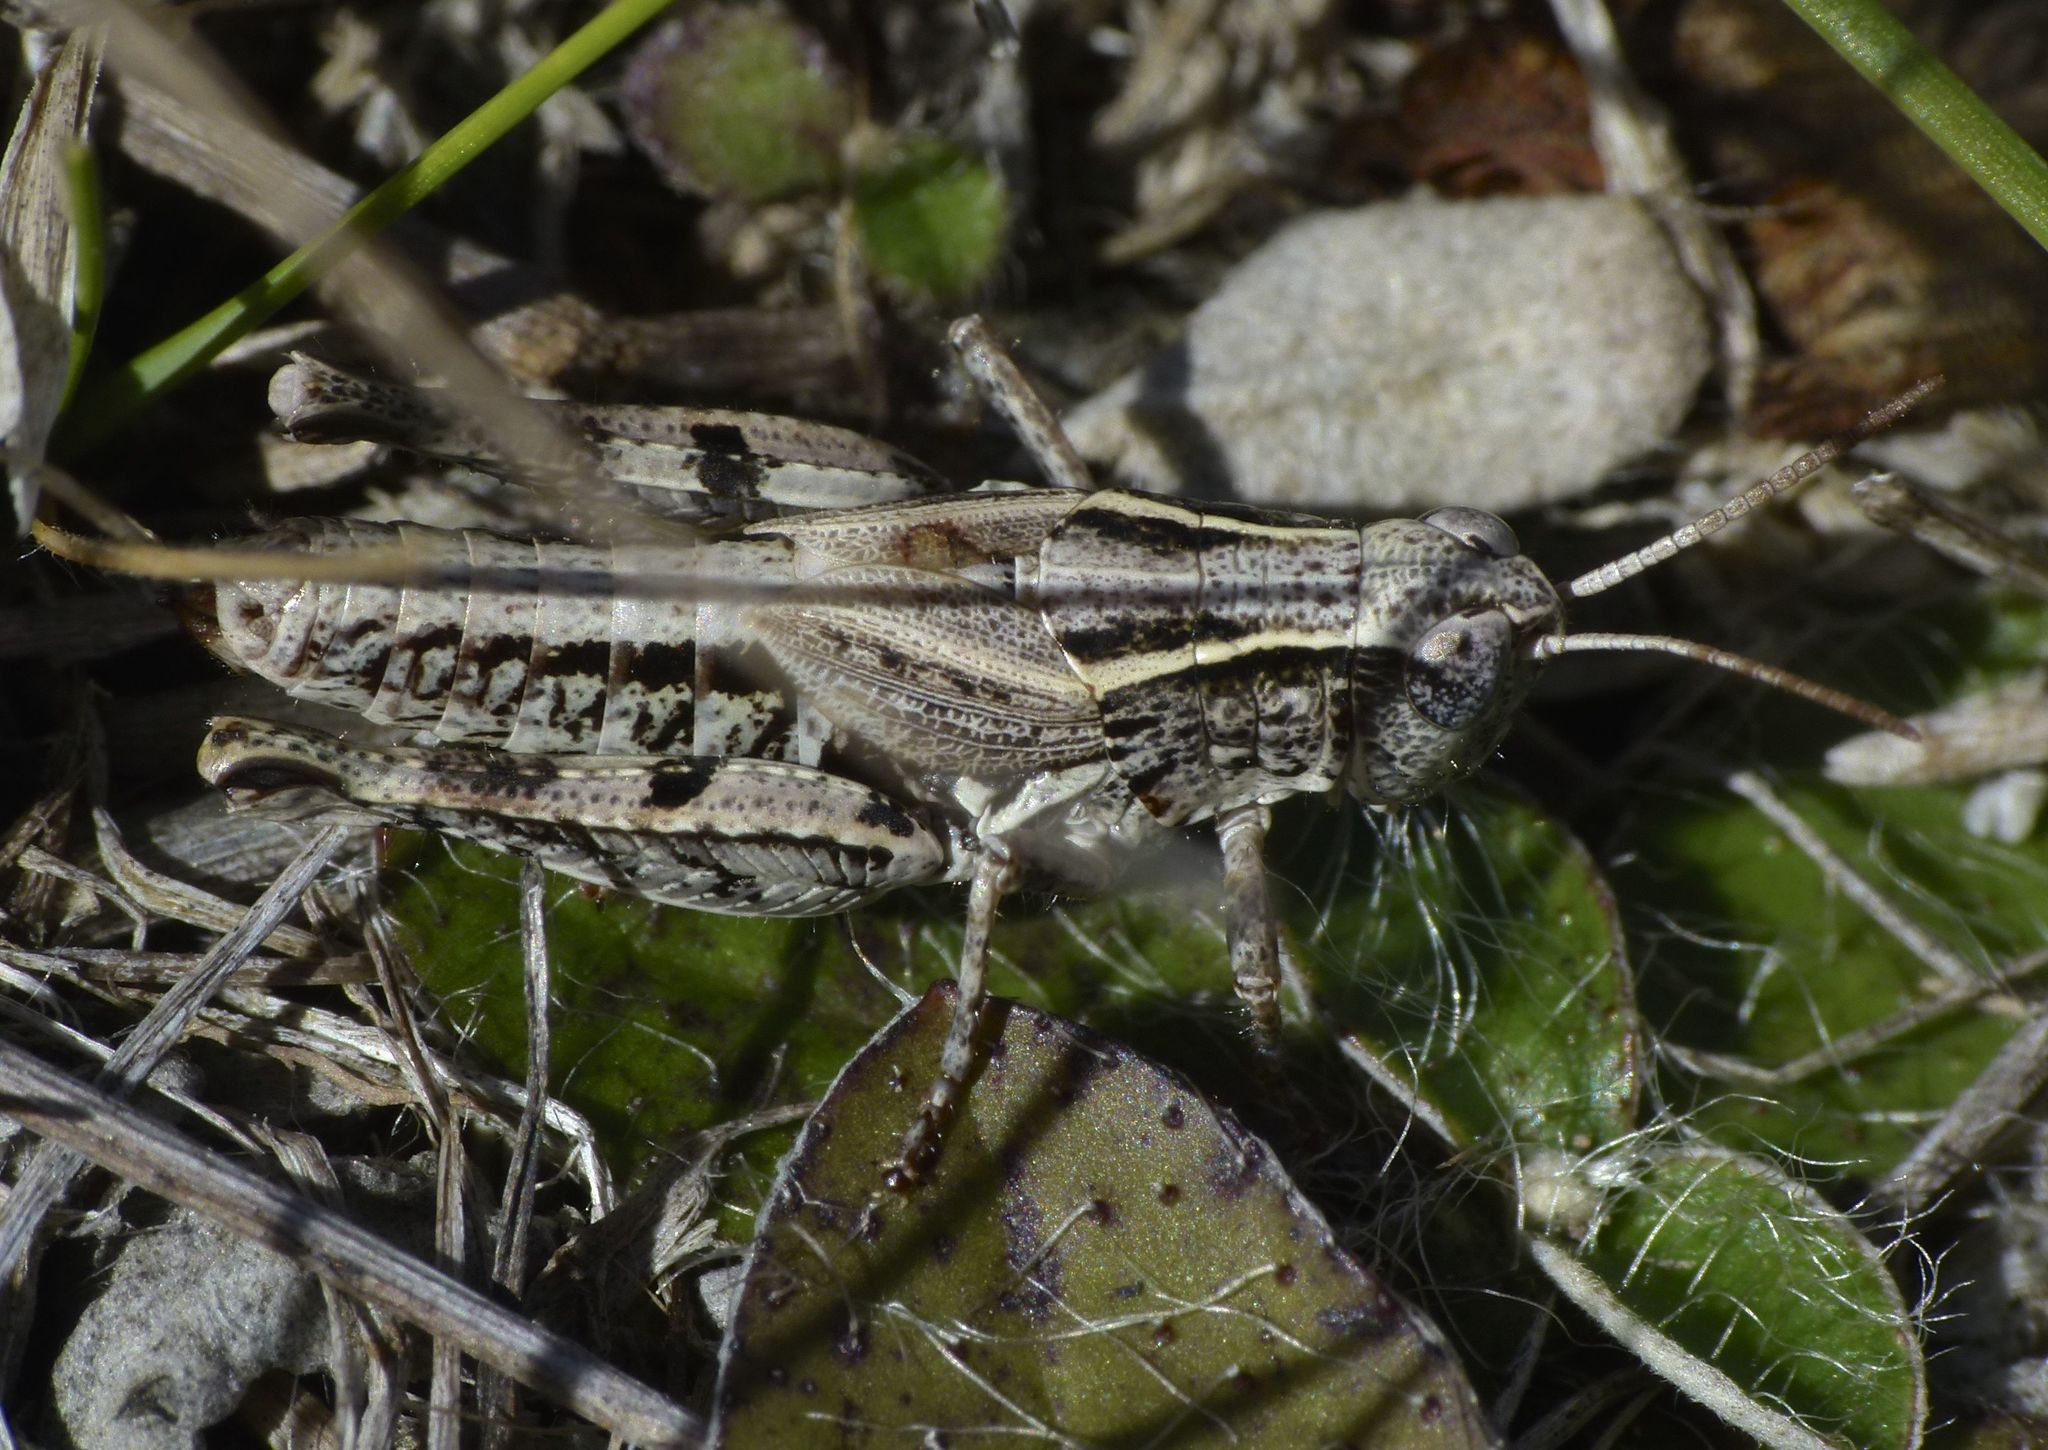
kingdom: Animalia
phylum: Arthropoda
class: Insecta
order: Orthoptera
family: Acrididae
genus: Phaulacridium
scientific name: Phaulacridium marginale
